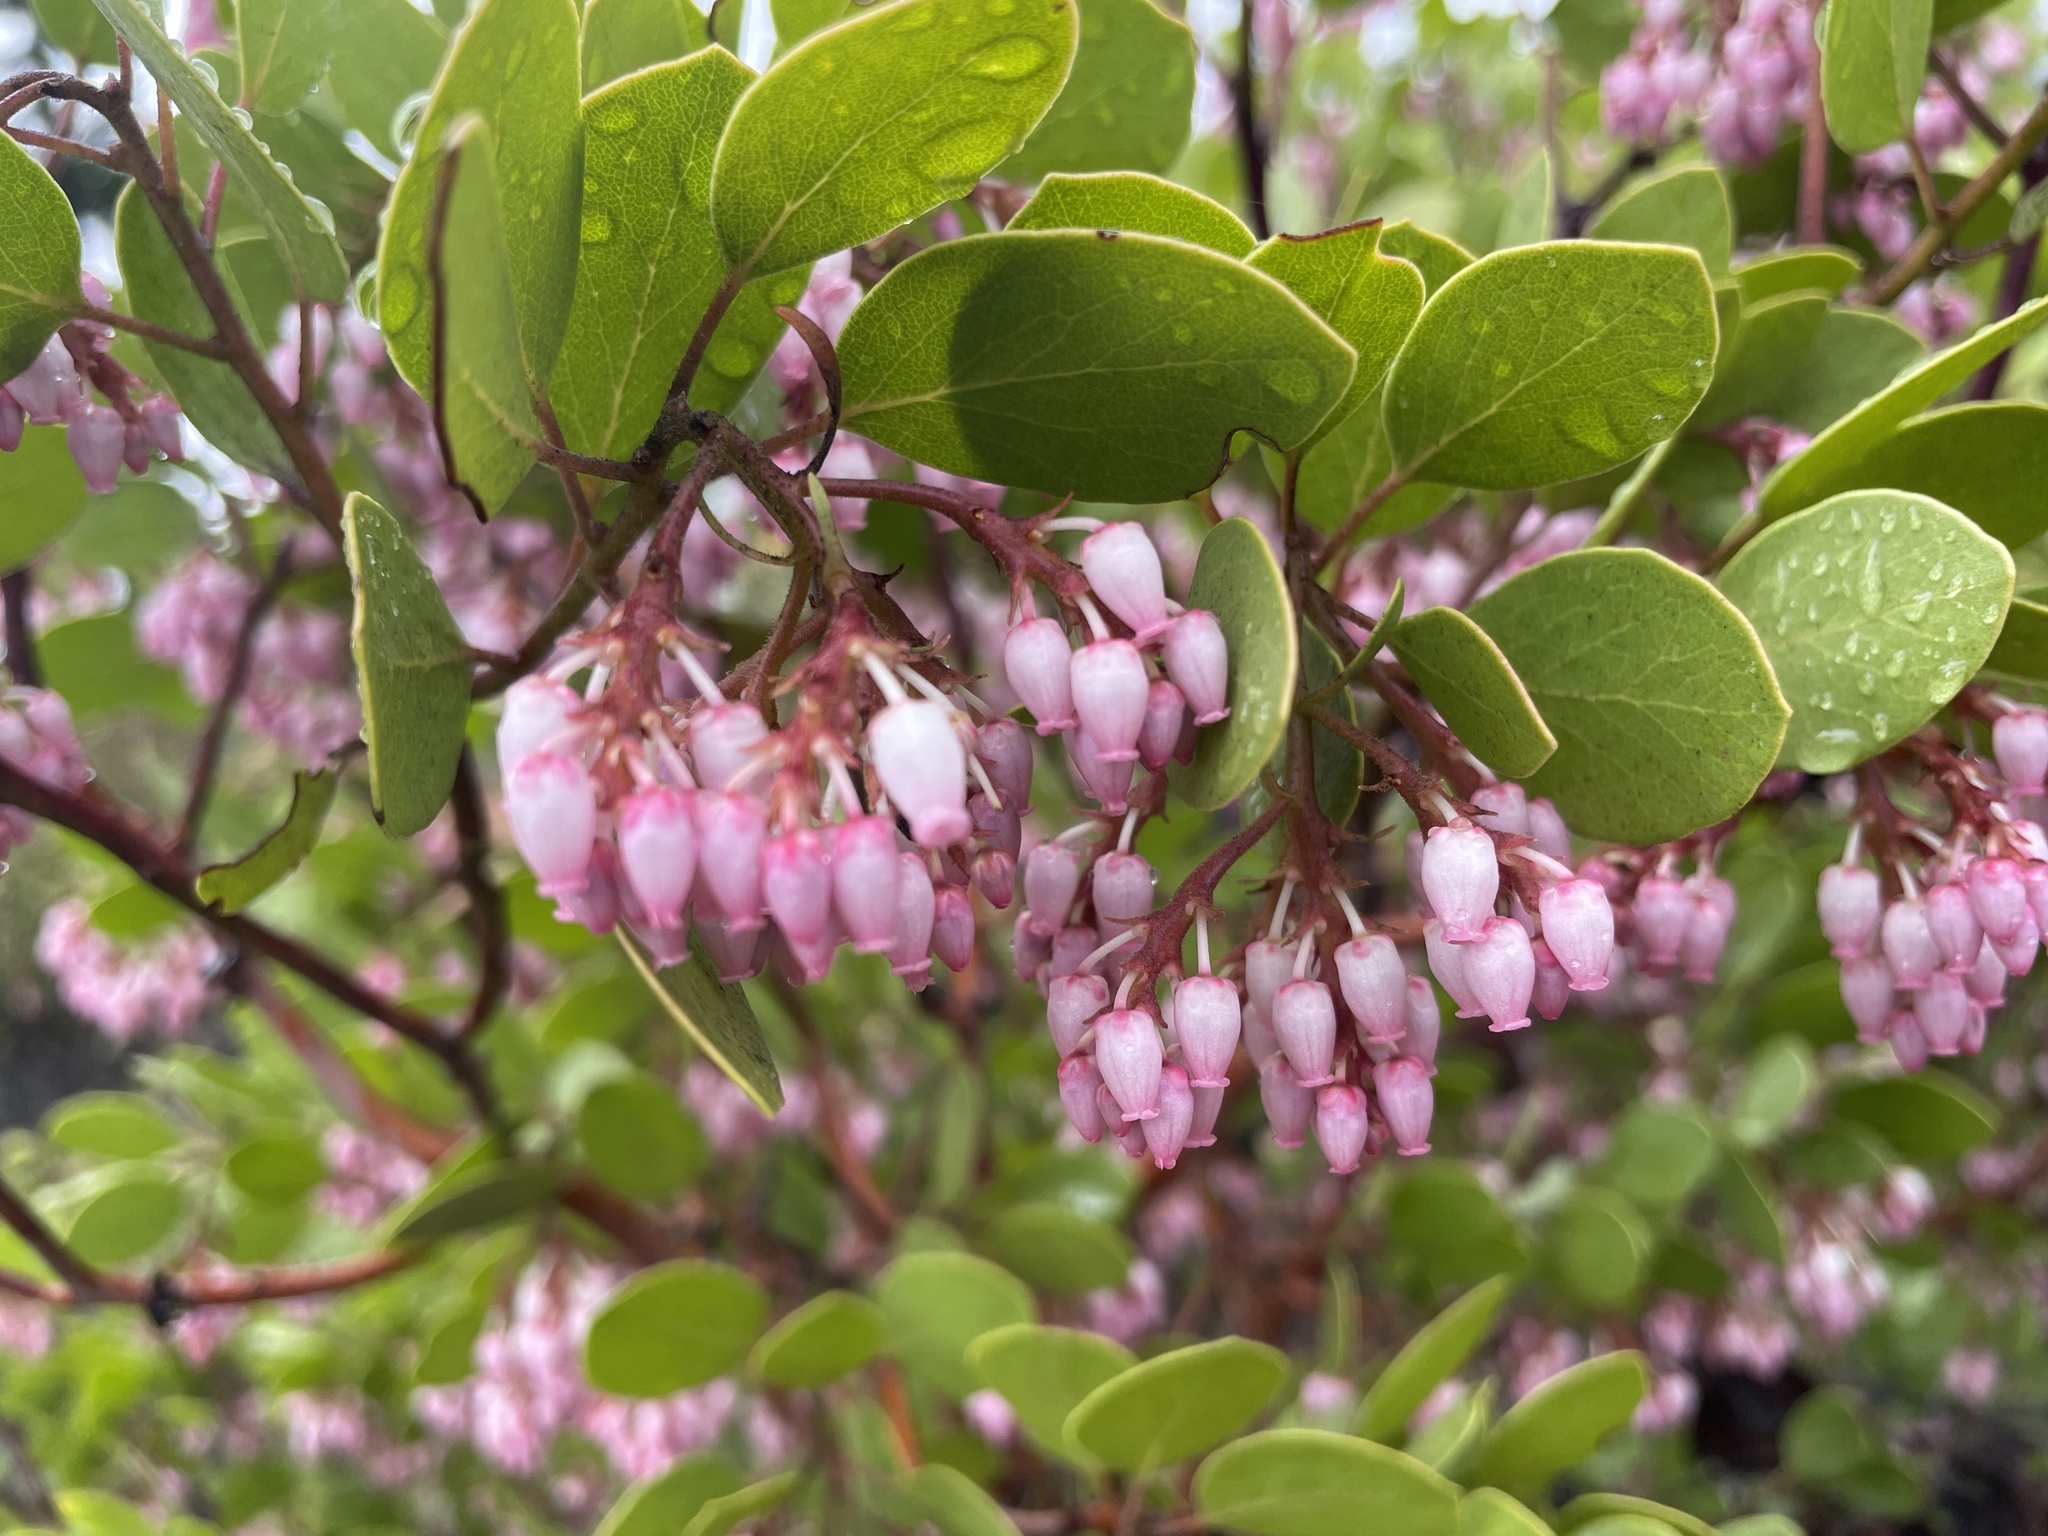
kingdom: Plantae
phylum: Tracheophyta
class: Magnoliopsida
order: Ericales
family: Ericaceae
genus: Arctostaphylos
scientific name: Arctostaphylos patula
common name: Green-leaf manzanita
